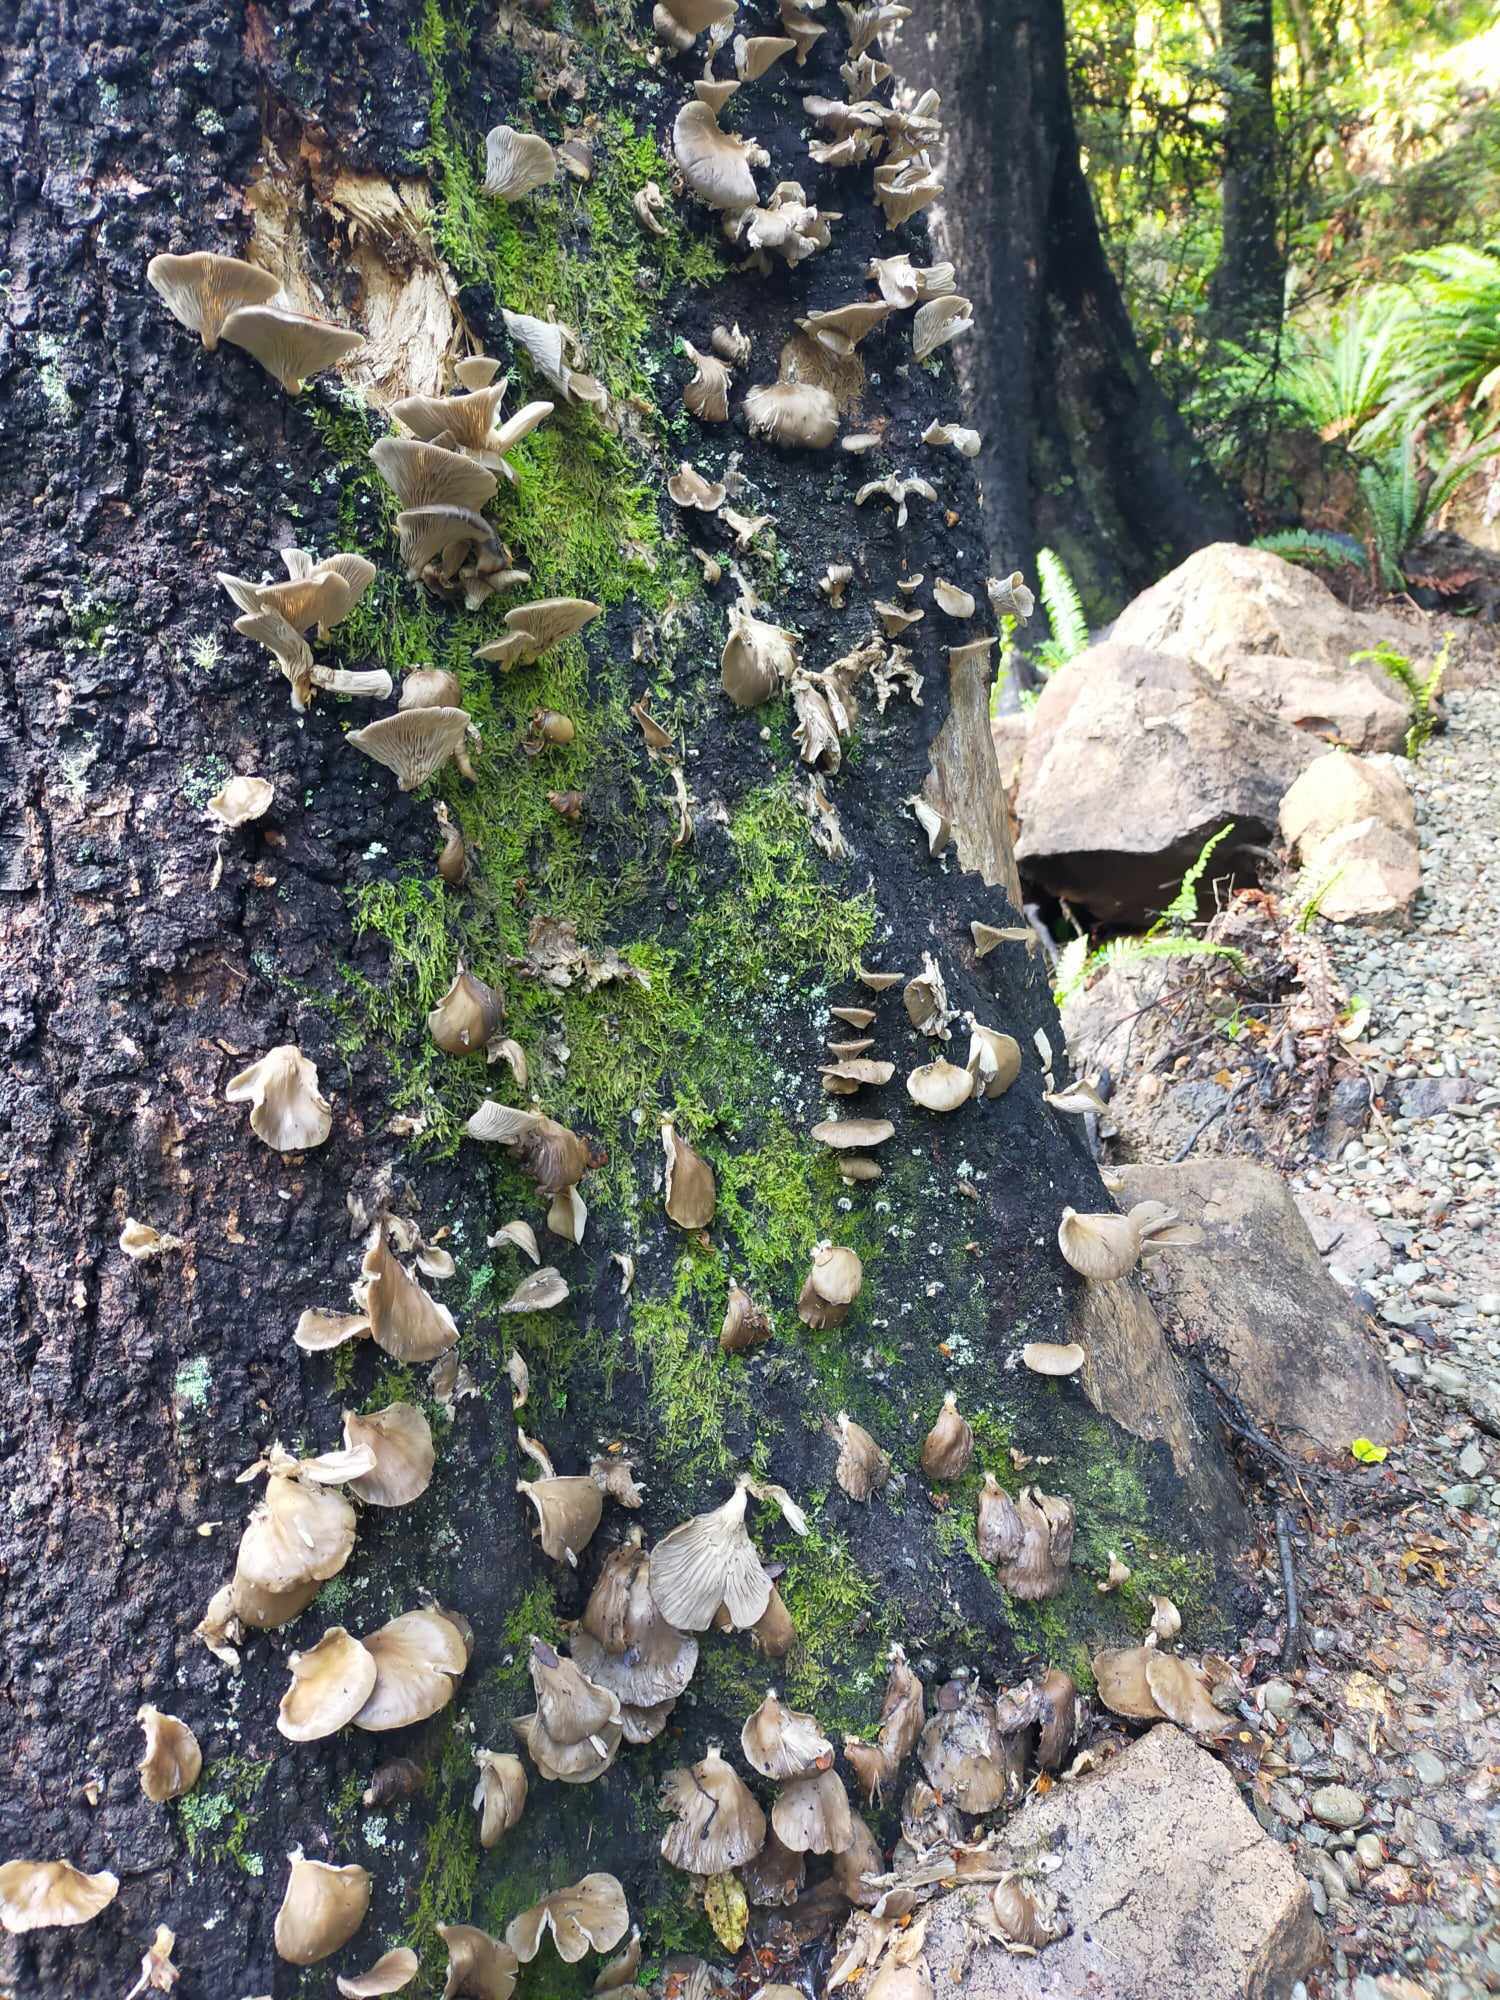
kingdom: Fungi
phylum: Basidiomycota
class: Agaricomycetes
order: Agaricales
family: Pleurotaceae
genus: Pleurotus
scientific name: Pleurotus purpureo-olivaceus
